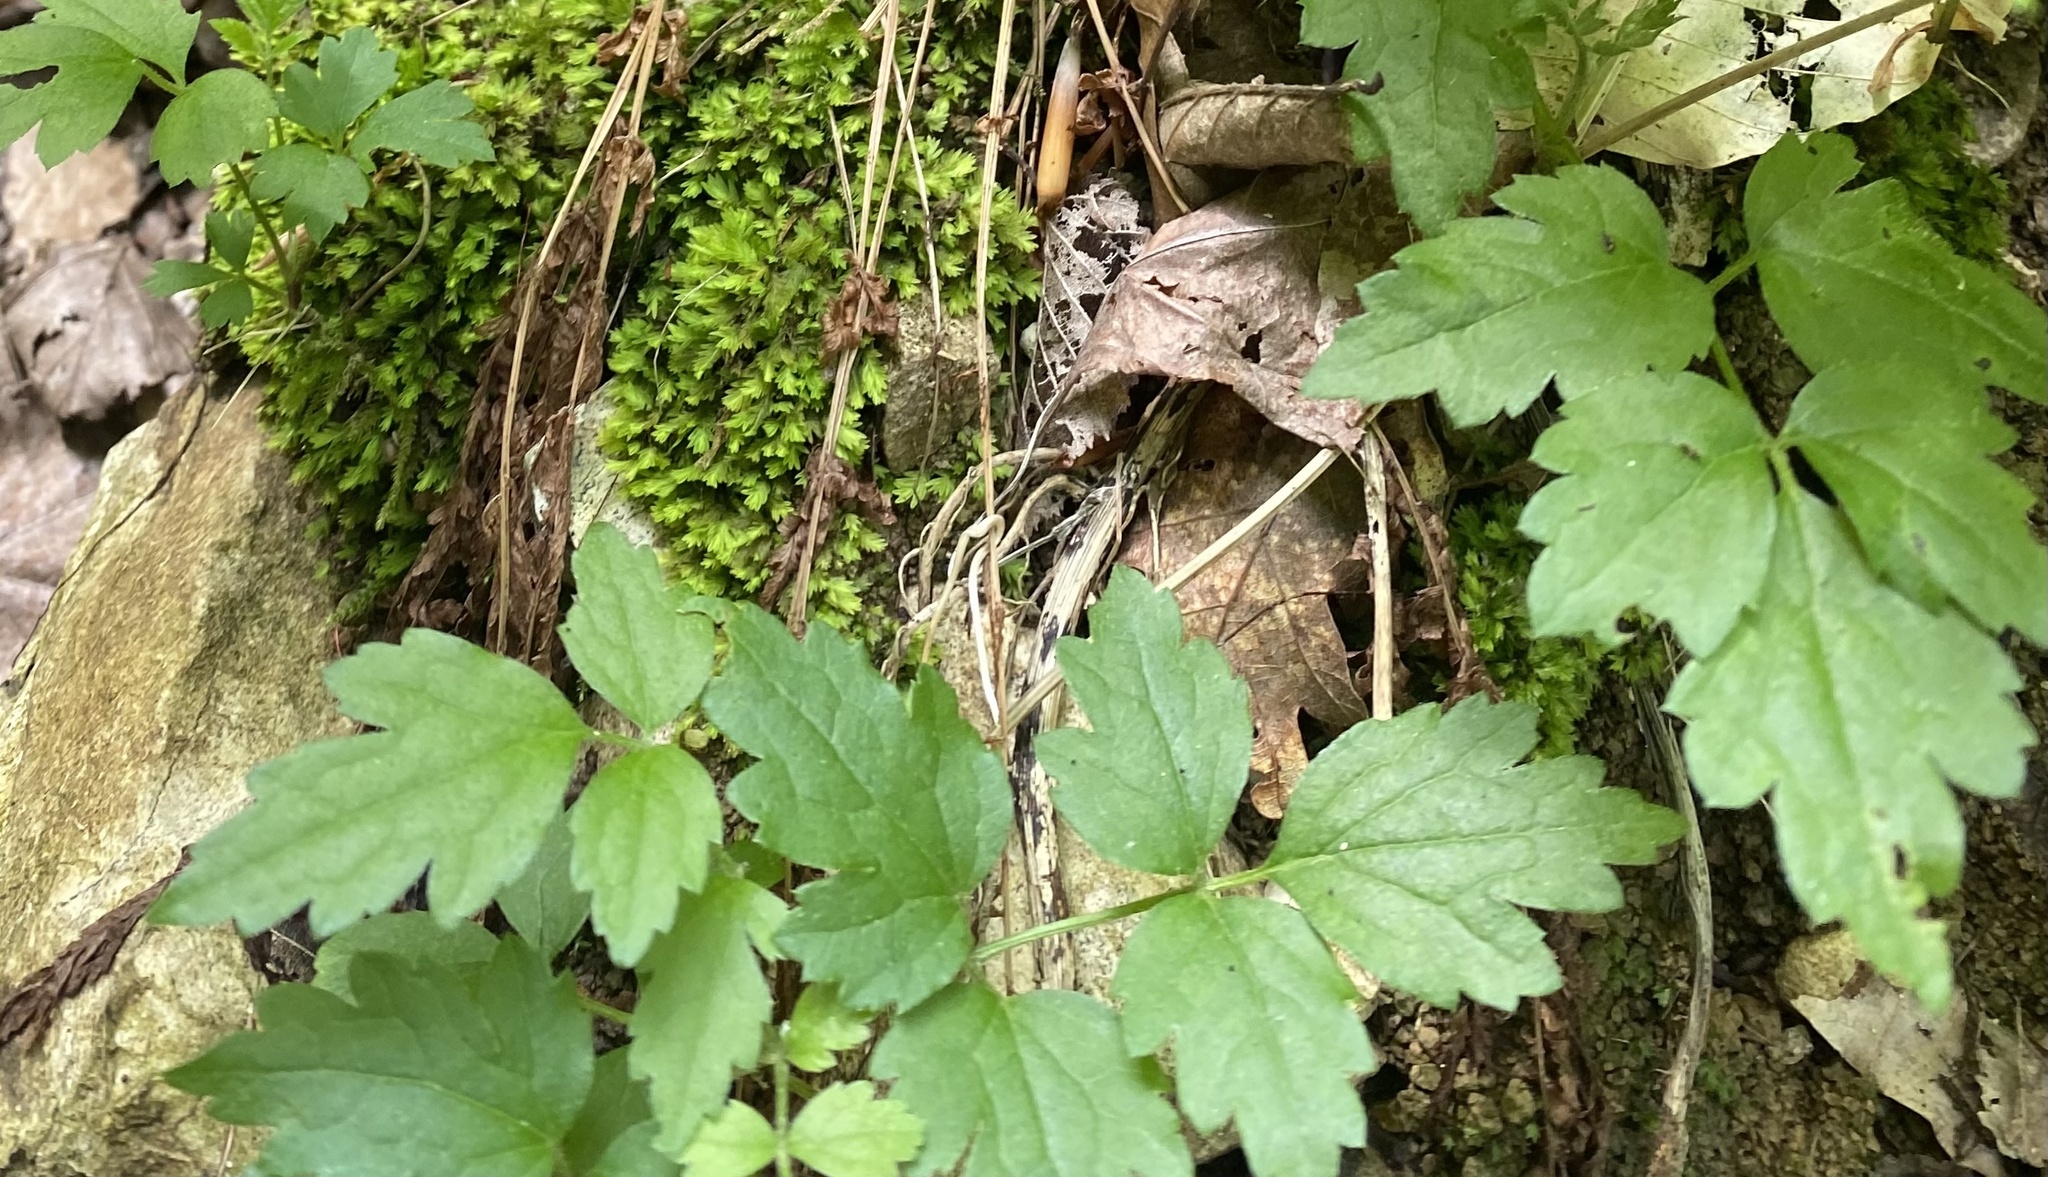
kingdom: Plantae
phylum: Tracheophyta
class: Magnoliopsida
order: Ranunculales
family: Ranunculaceae
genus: Clematis
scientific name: Clematis vitalba
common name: Evergreen clematis
